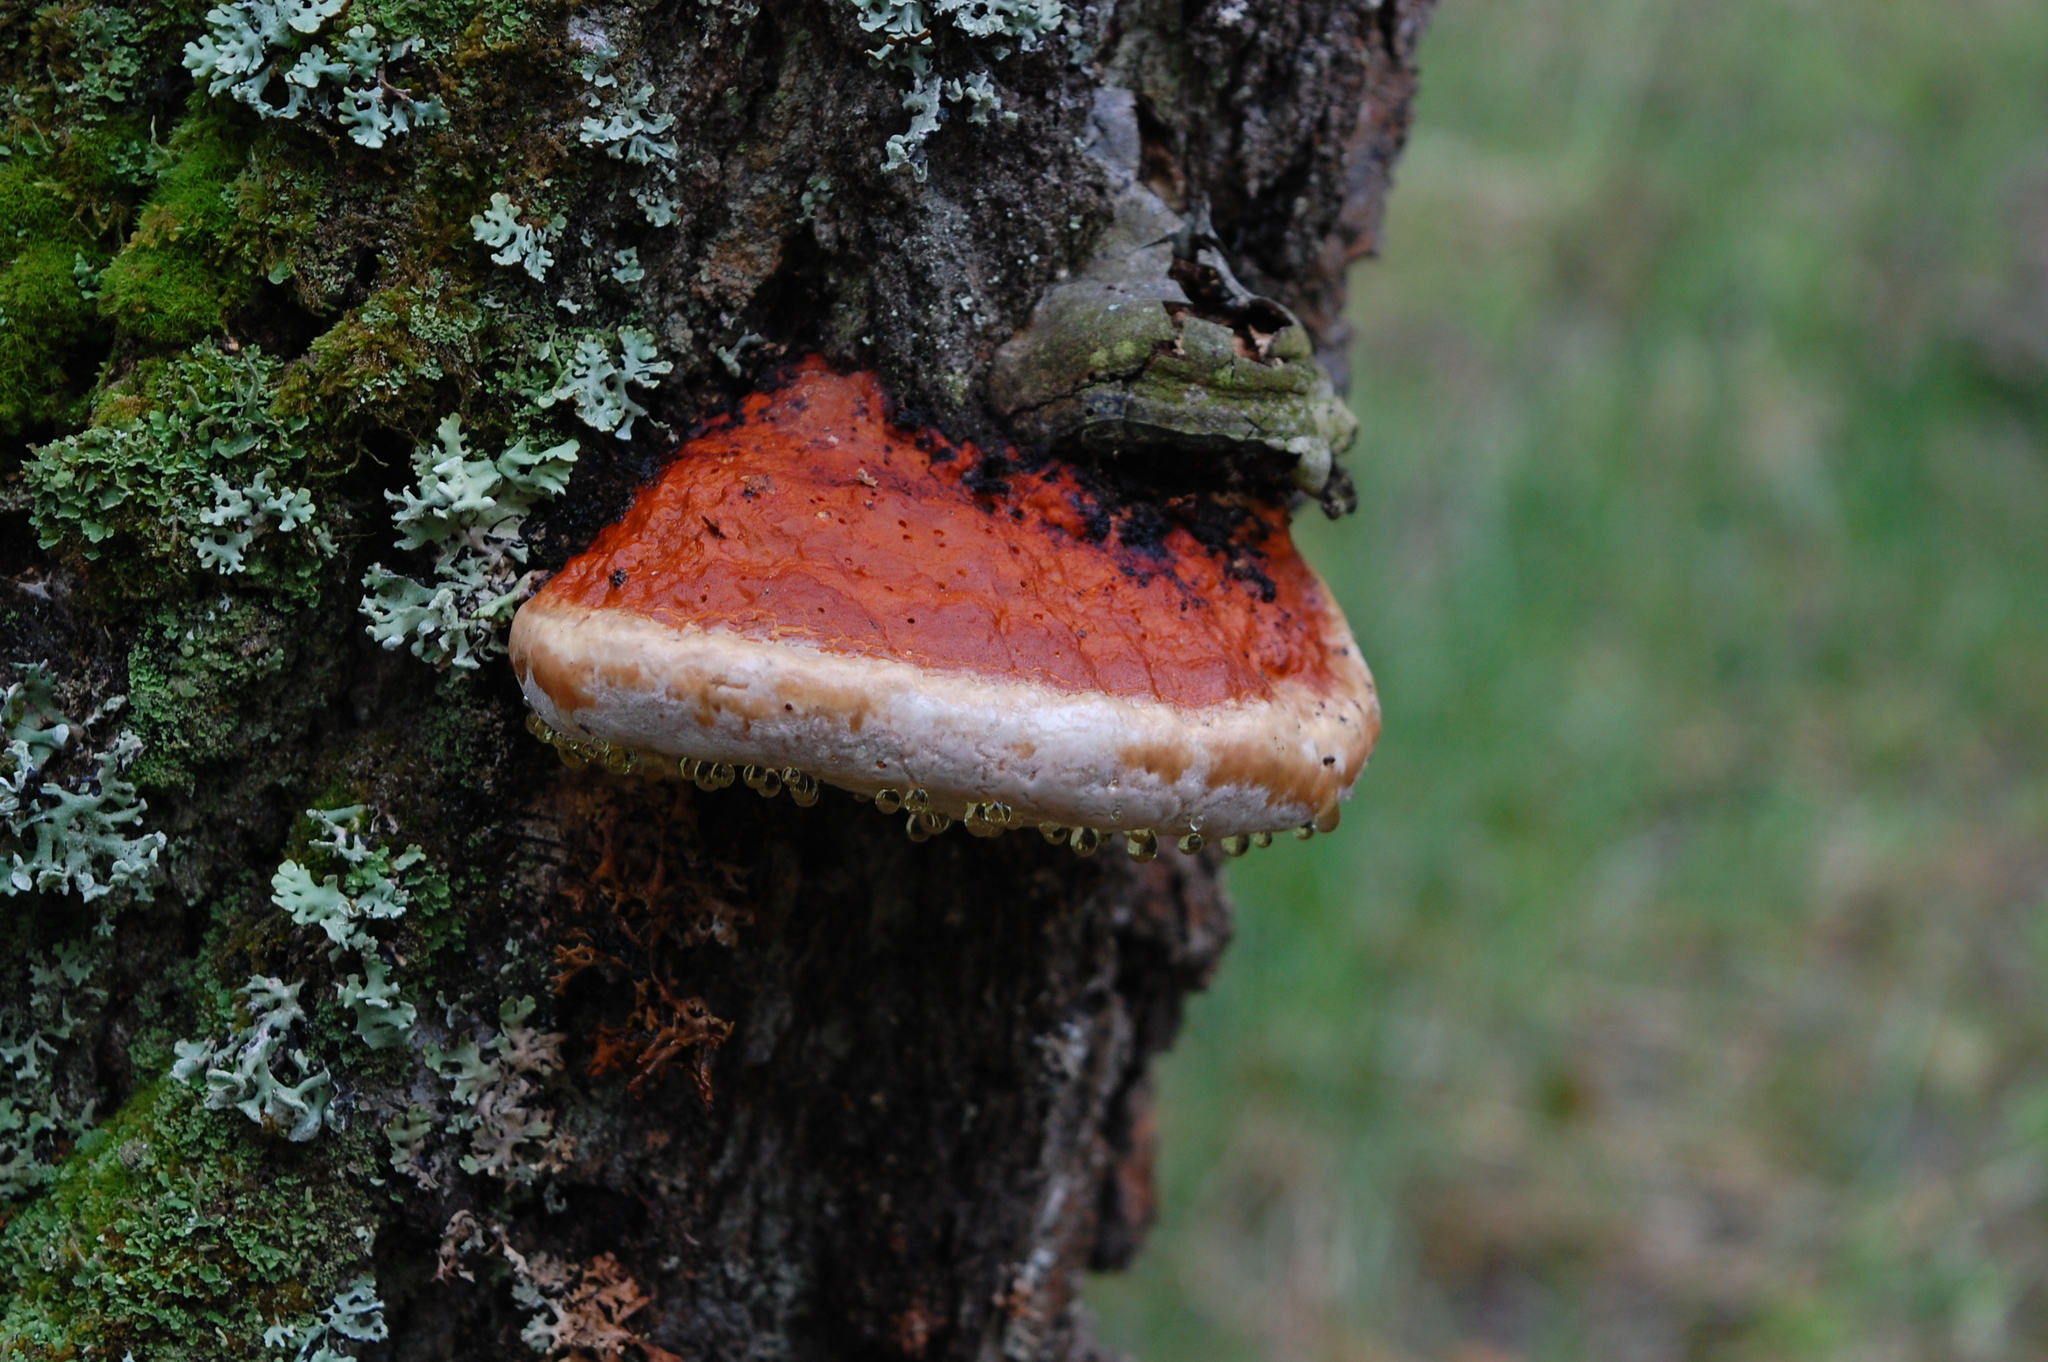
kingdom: Fungi
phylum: Basidiomycota
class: Agaricomycetes
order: Polyporales
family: Fomitopsidaceae
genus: Fomitopsis
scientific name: Fomitopsis pinicola
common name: Red-belted bracket
